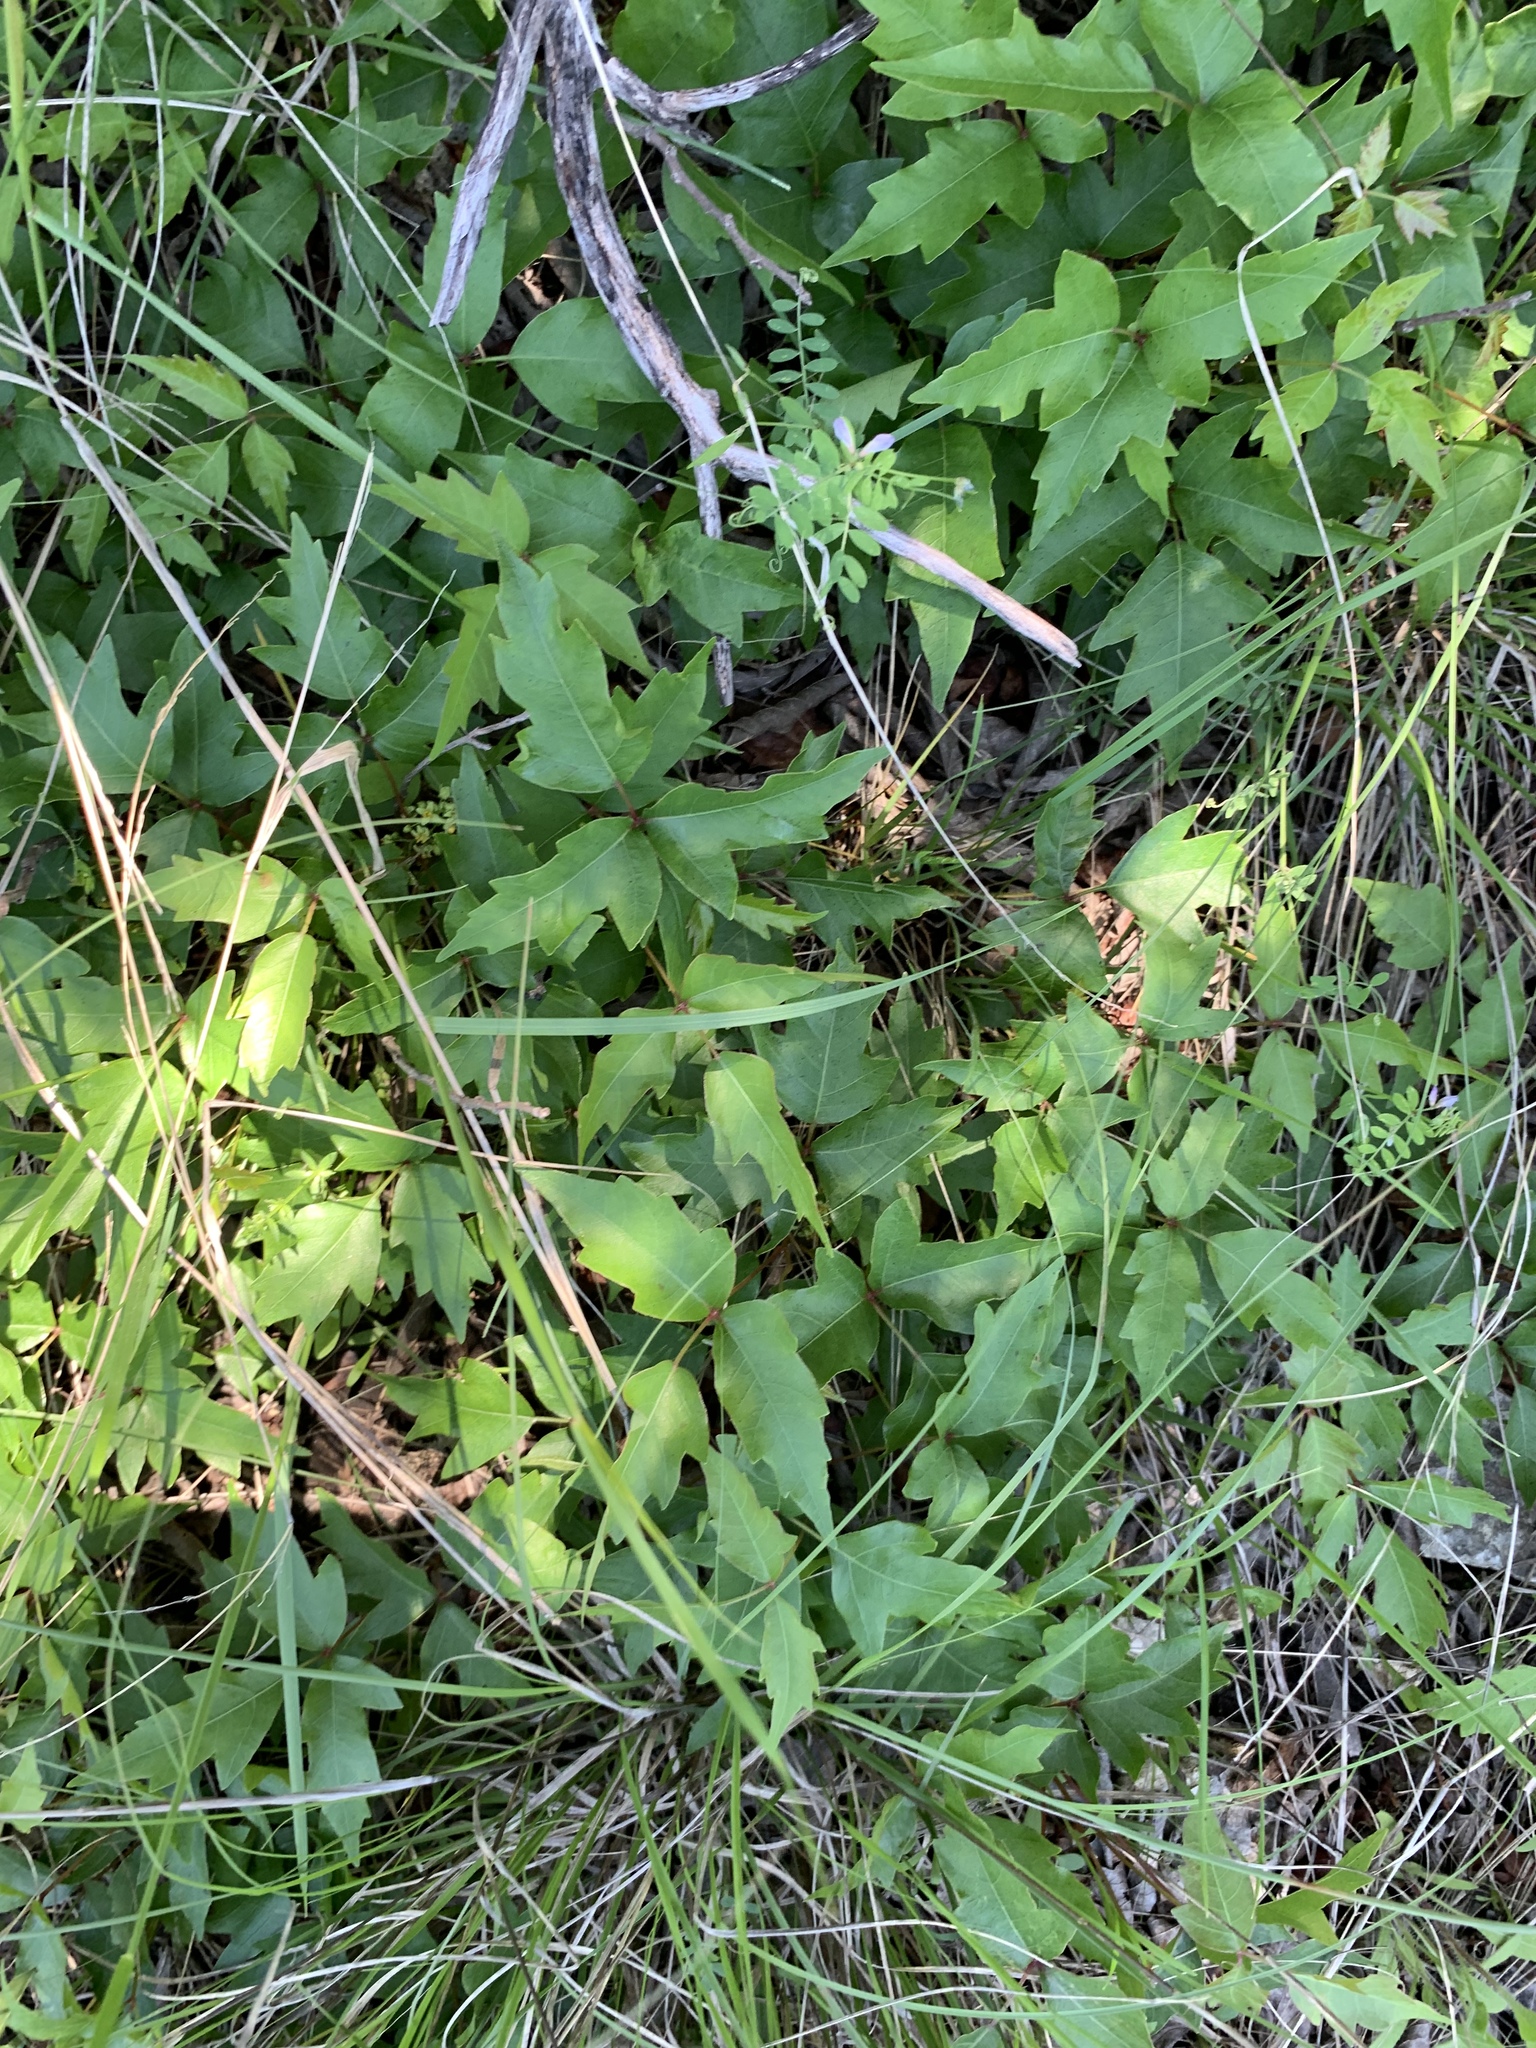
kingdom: Plantae
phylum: Tracheophyta
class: Magnoliopsida
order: Sapindales
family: Anacardiaceae
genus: Toxicodendron
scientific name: Toxicodendron radicans
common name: Poison ivy
